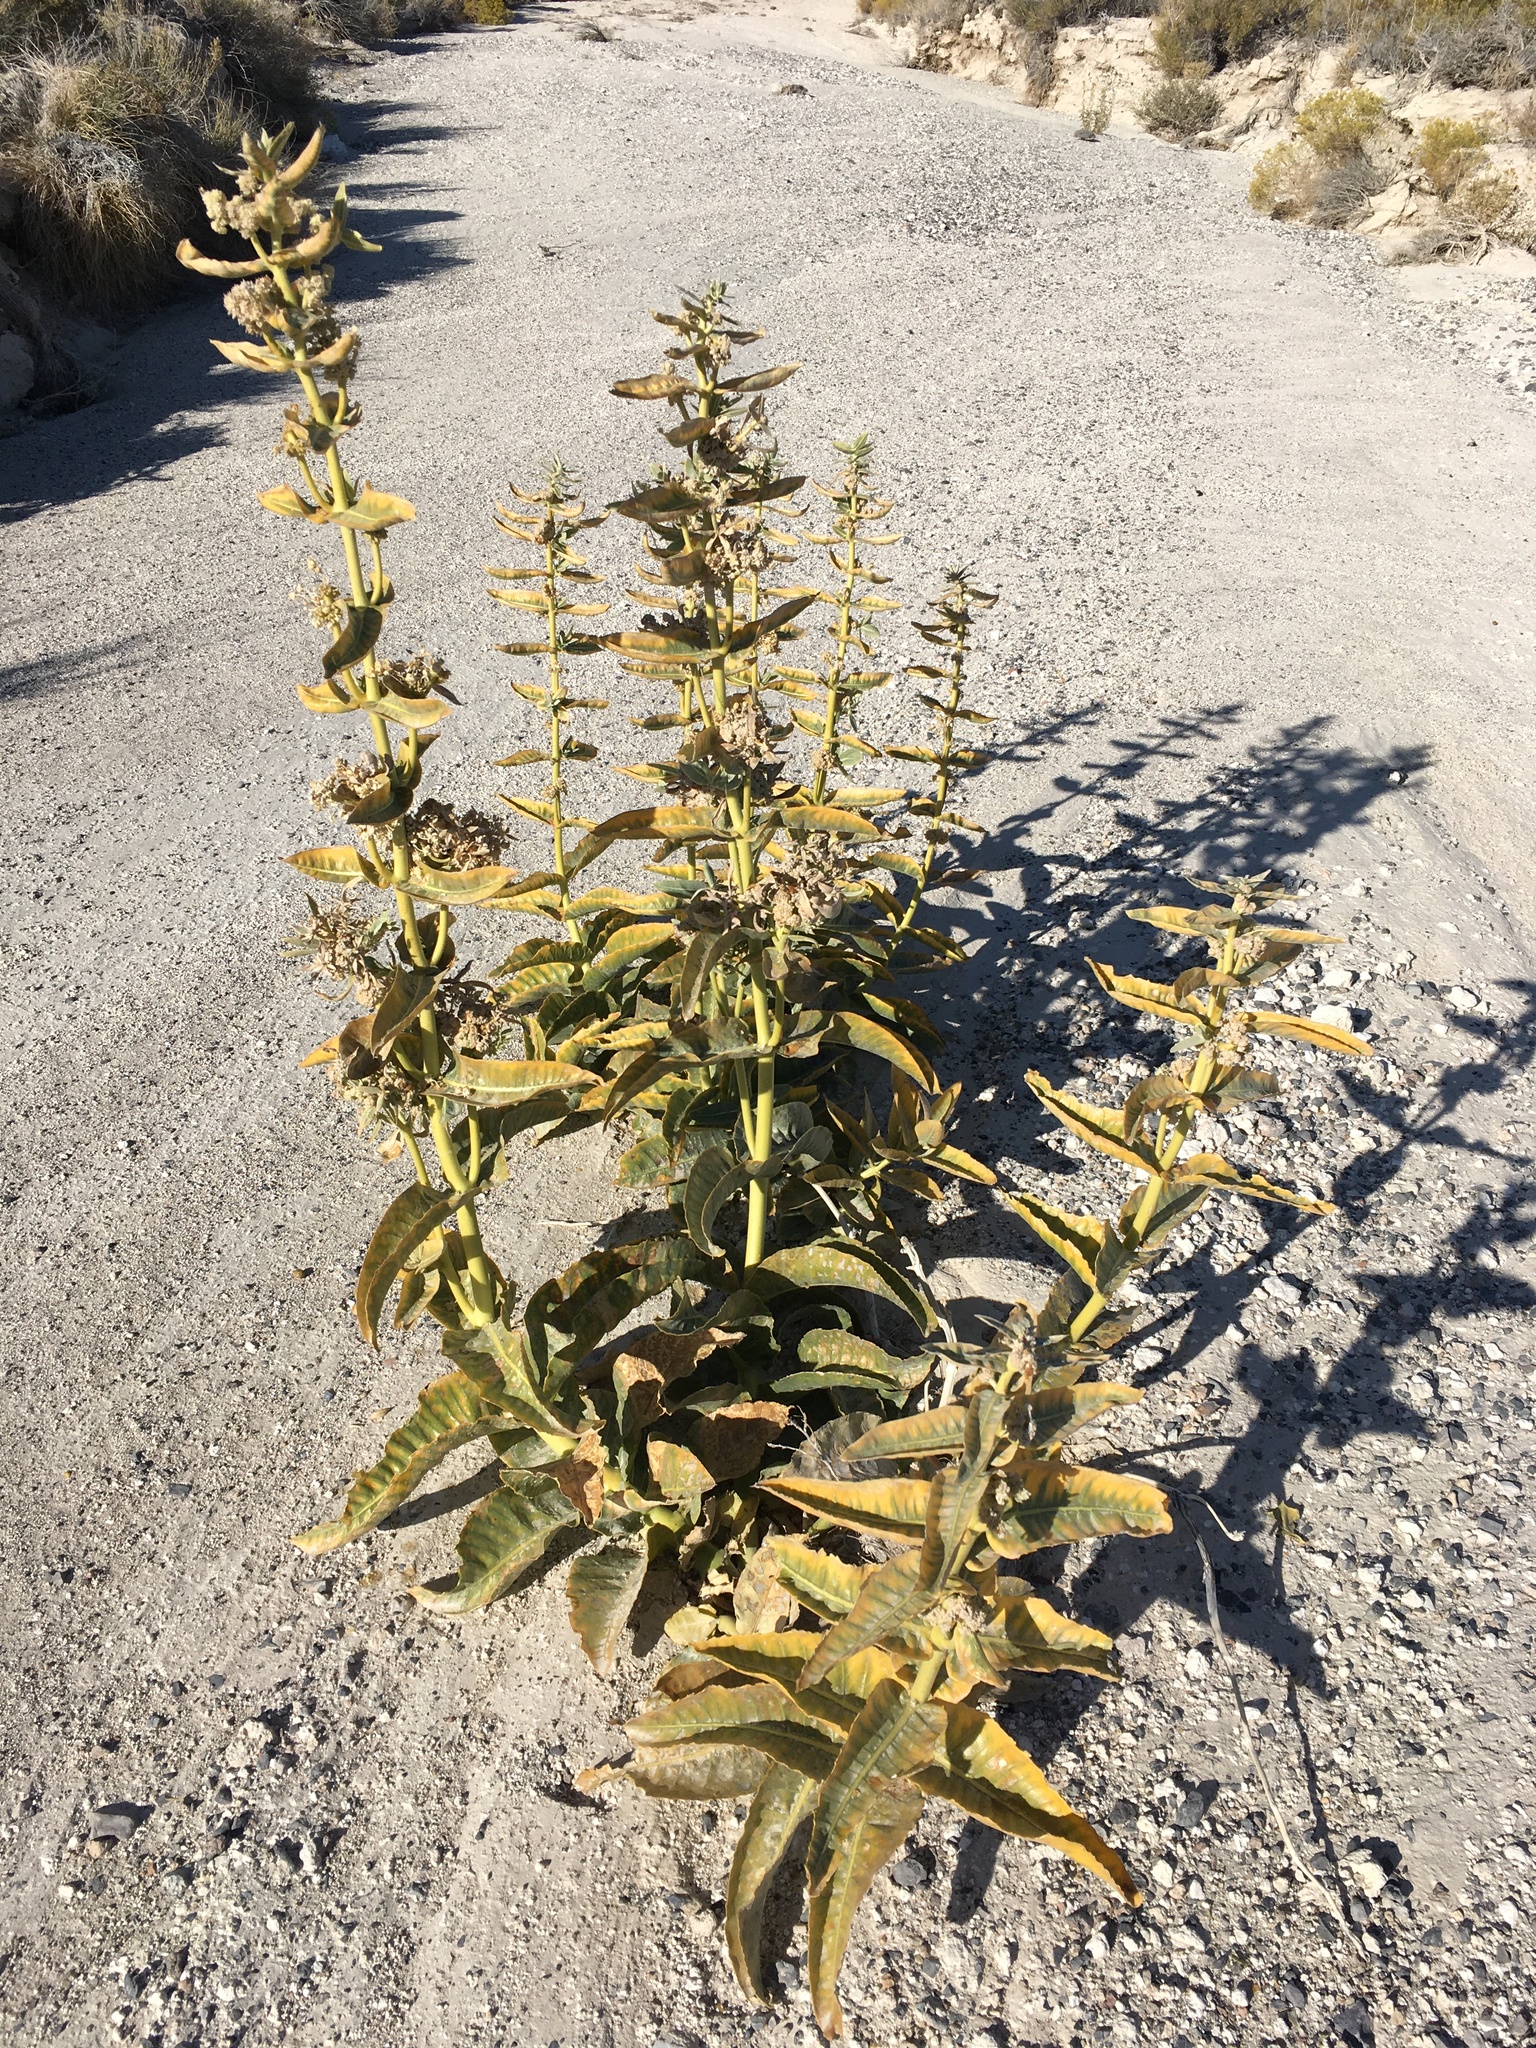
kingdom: Plantae
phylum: Tracheophyta
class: Magnoliopsida
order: Gentianales
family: Apocynaceae
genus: Asclepias
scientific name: Asclepias erosa
